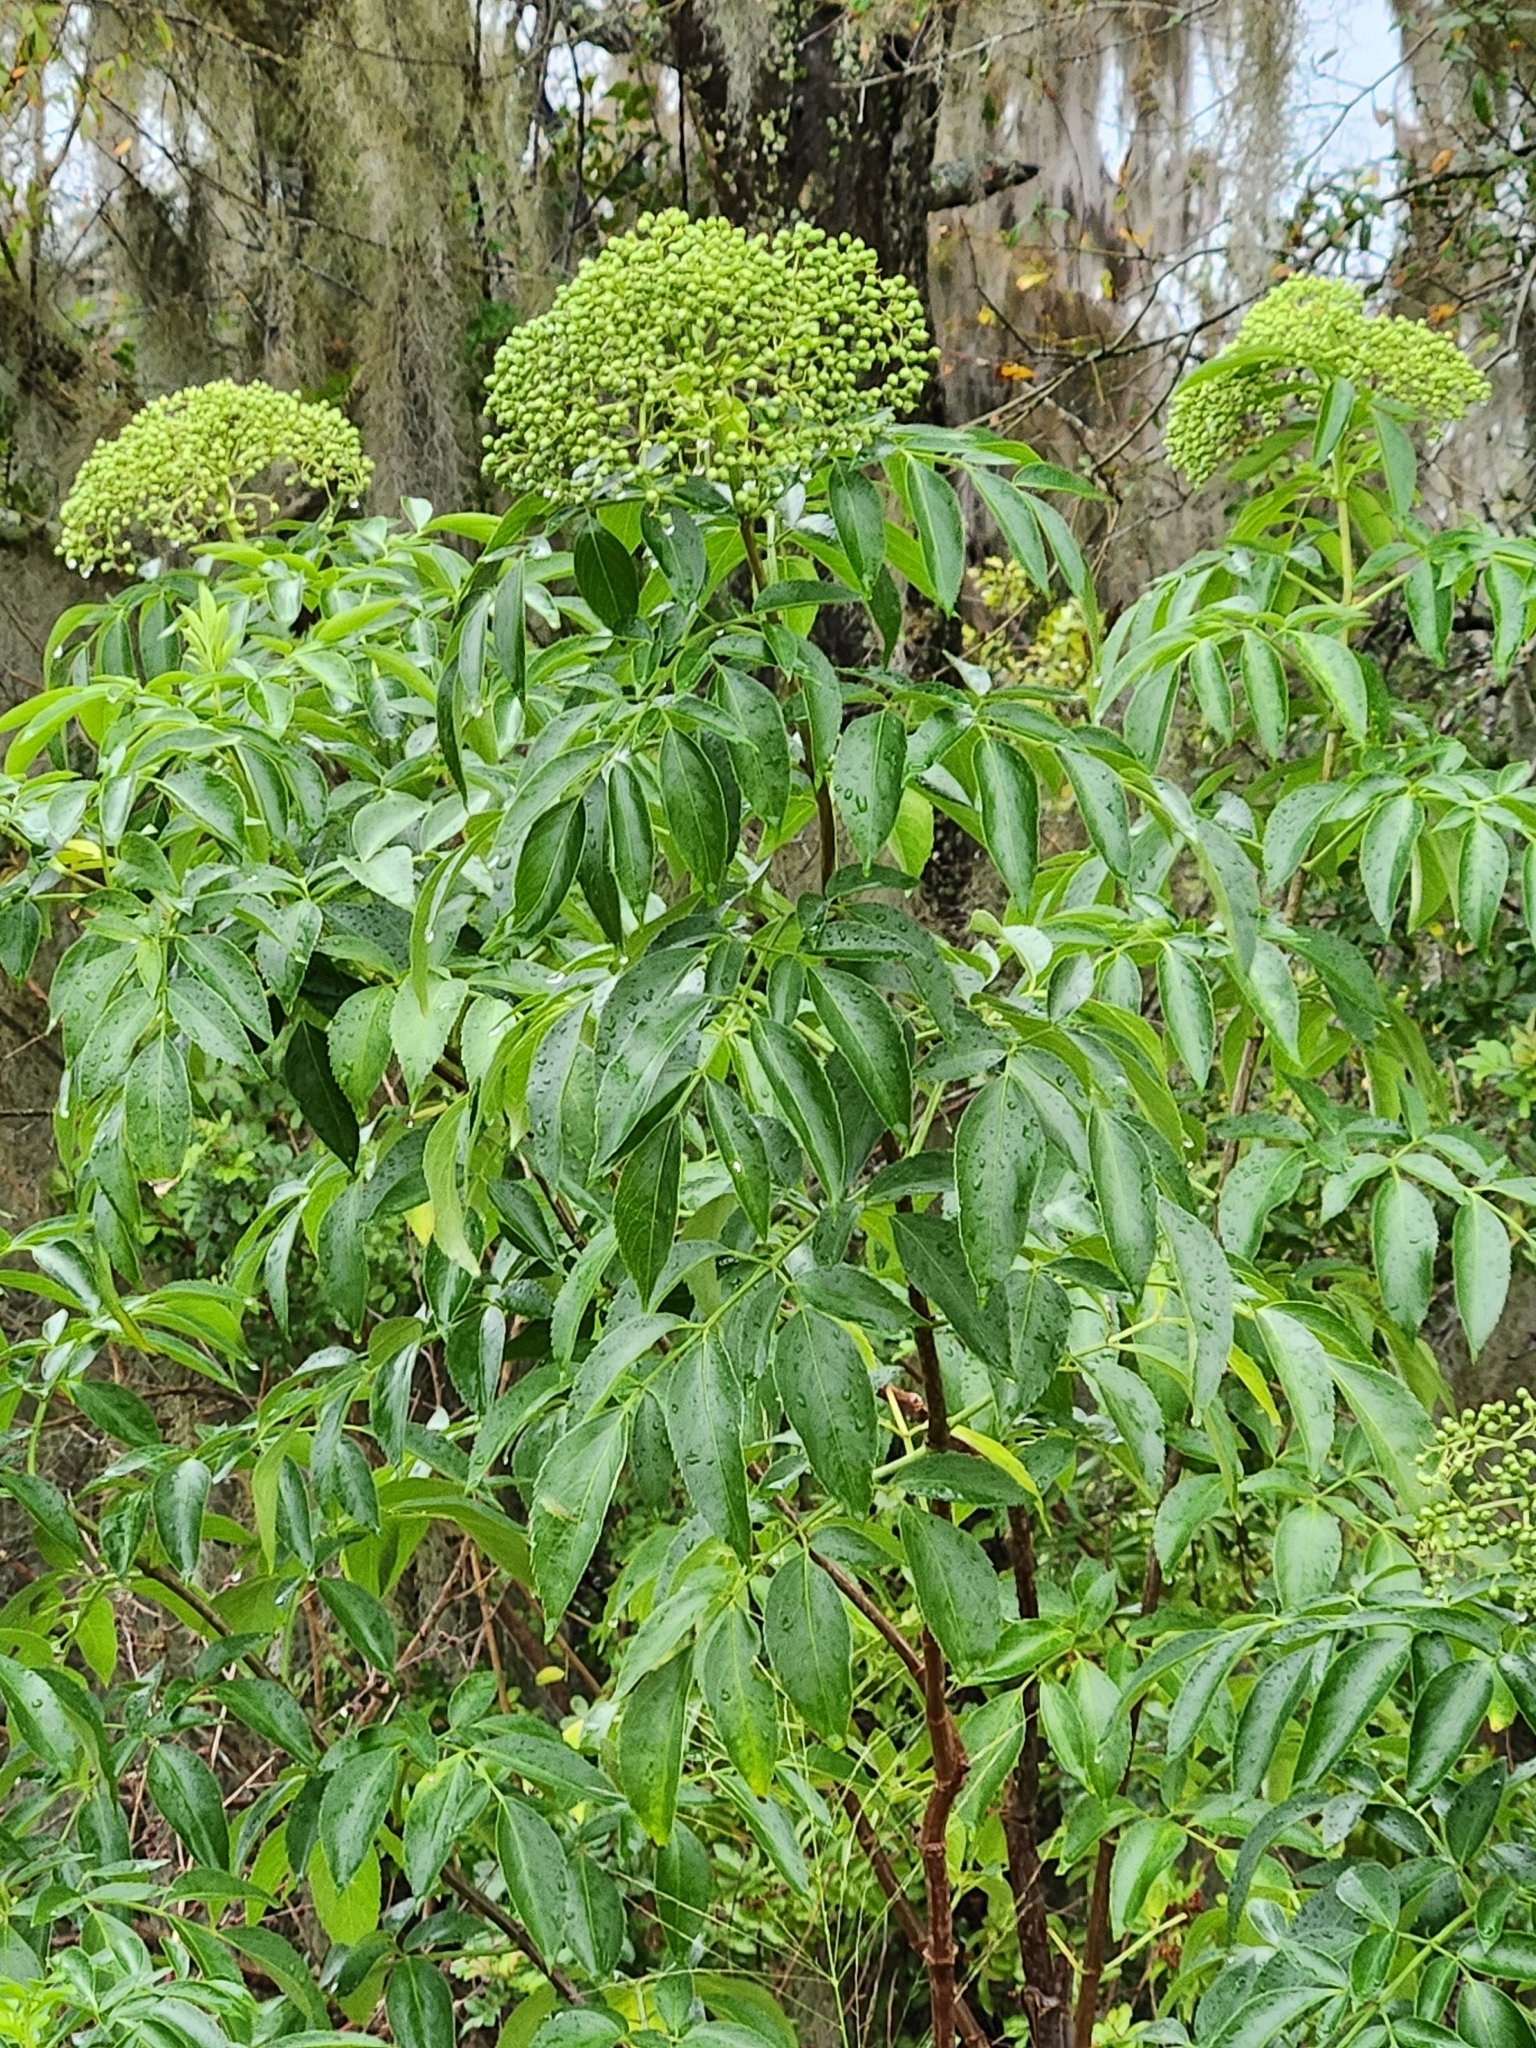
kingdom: Plantae
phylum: Tracheophyta
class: Magnoliopsida
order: Dipsacales
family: Viburnaceae
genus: Sambucus
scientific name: Sambucus canadensis
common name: American elder
